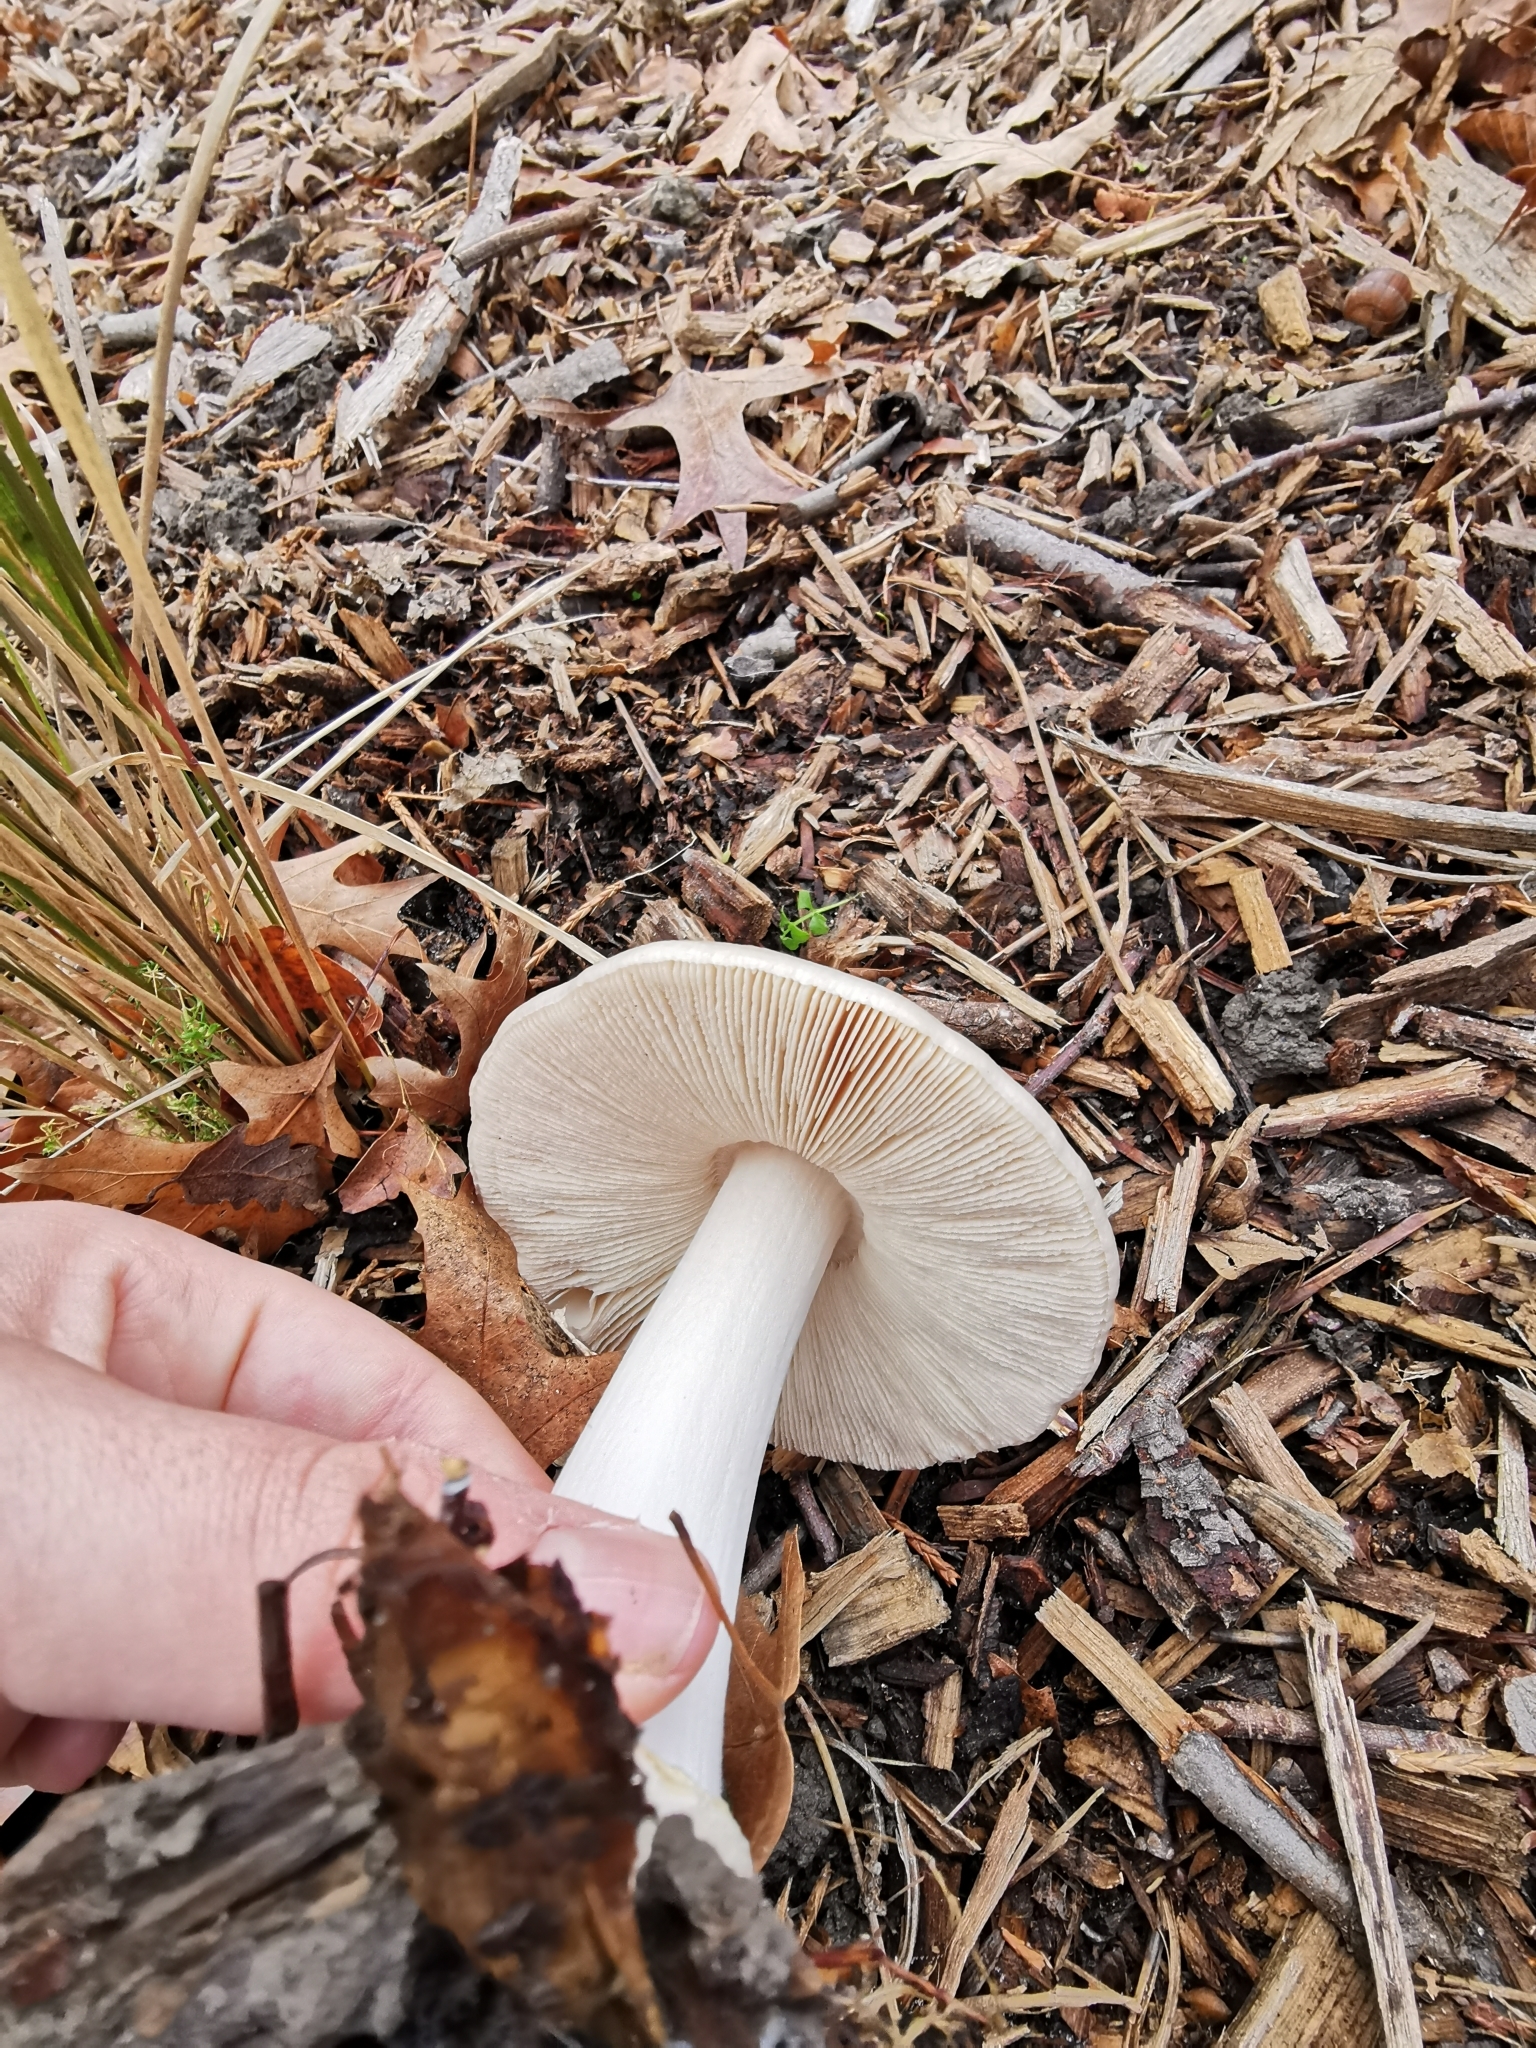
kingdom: Fungi
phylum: Basidiomycota
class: Agaricomycetes
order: Agaricales
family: Pluteaceae
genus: Volvopluteus
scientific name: Volvopluteus gloiocephalus
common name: Stubble rosegill
